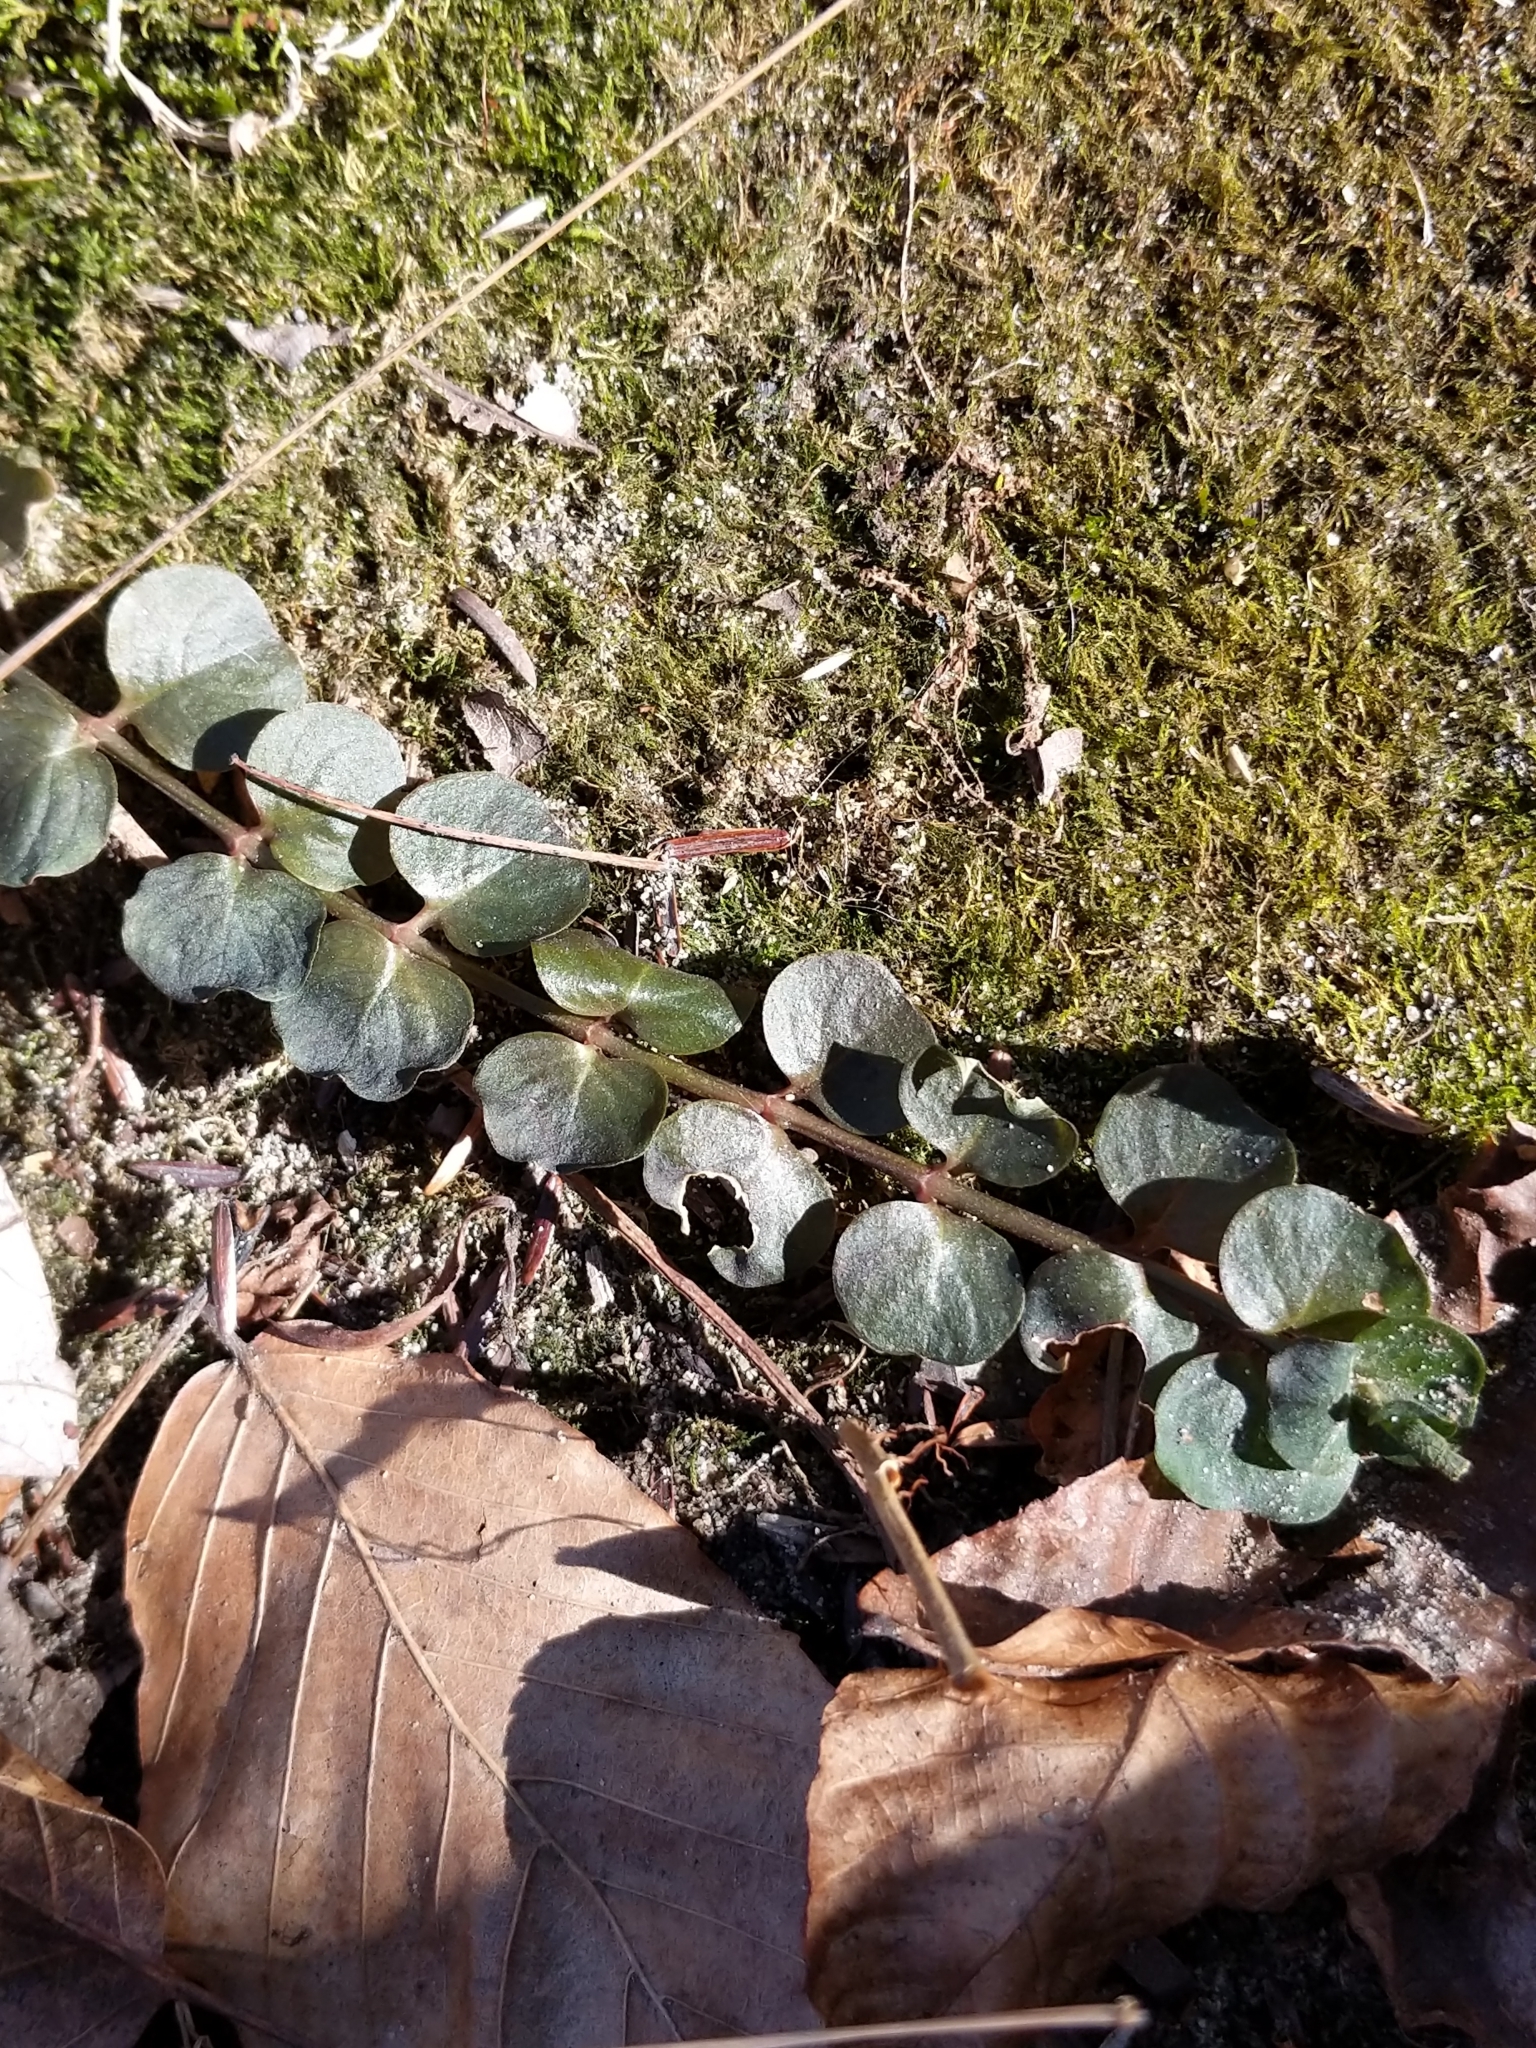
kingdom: Plantae
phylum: Tracheophyta
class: Magnoliopsida
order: Ericales
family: Primulaceae
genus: Lysimachia
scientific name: Lysimachia nummularia
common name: Moneywort
